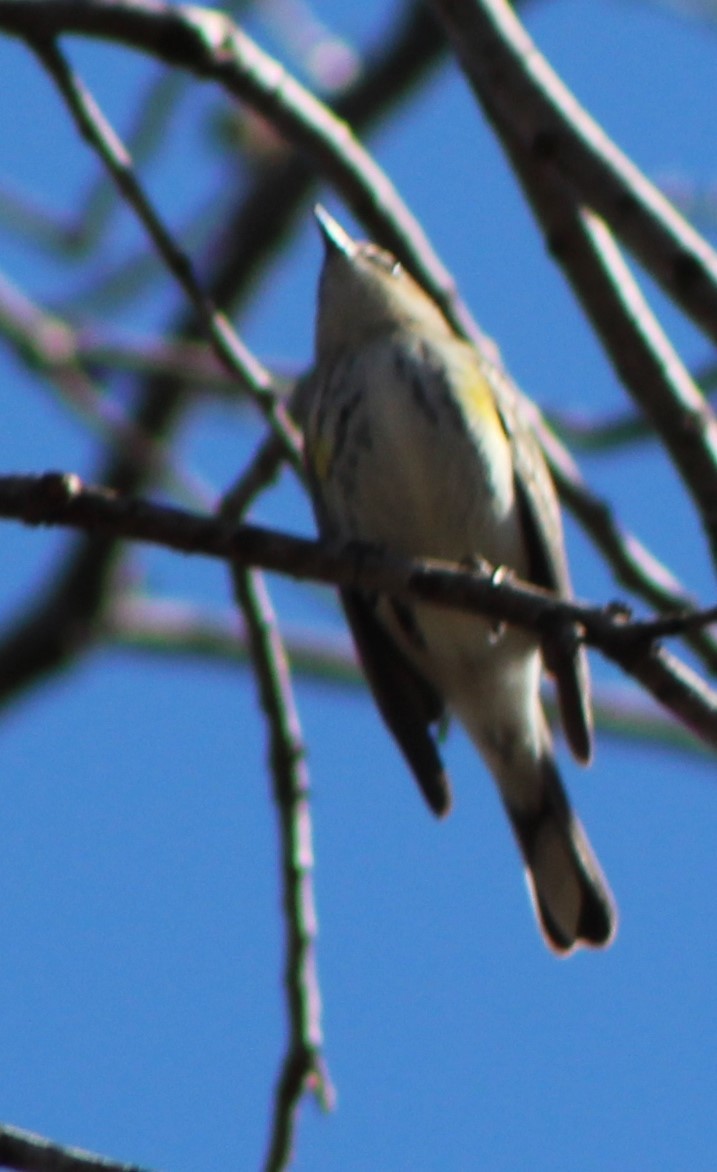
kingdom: Animalia
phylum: Chordata
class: Aves
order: Passeriformes
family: Parulidae
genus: Setophaga
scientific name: Setophaga coronata
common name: Myrtle warbler
